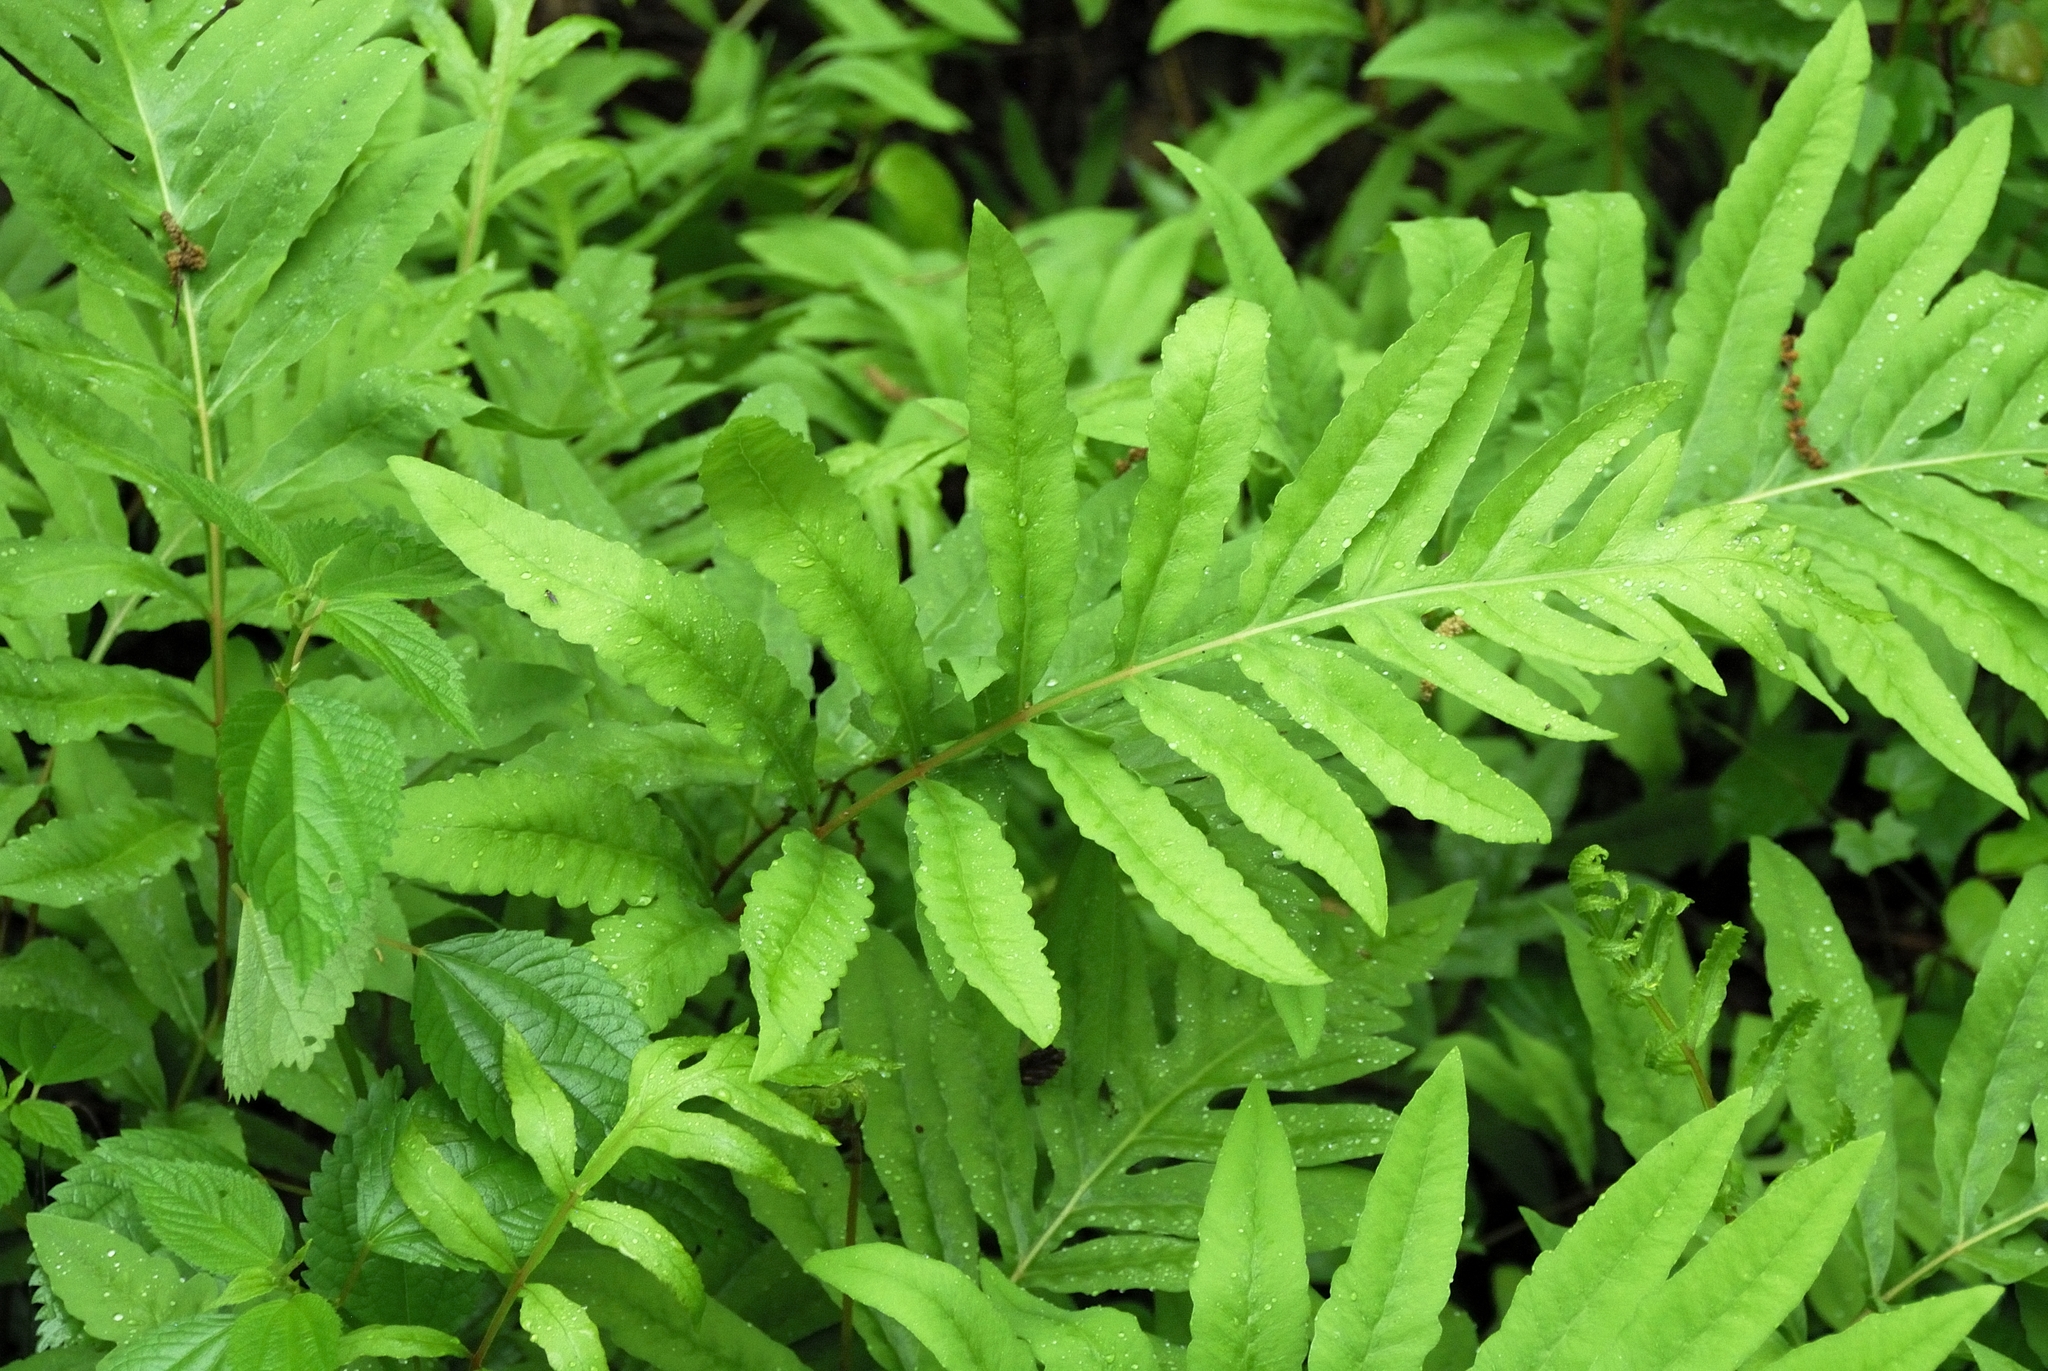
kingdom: Plantae
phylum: Tracheophyta
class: Polypodiopsida
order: Polypodiales
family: Onocleaceae
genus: Onoclea
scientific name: Onoclea sensibilis
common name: Sensitive fern
